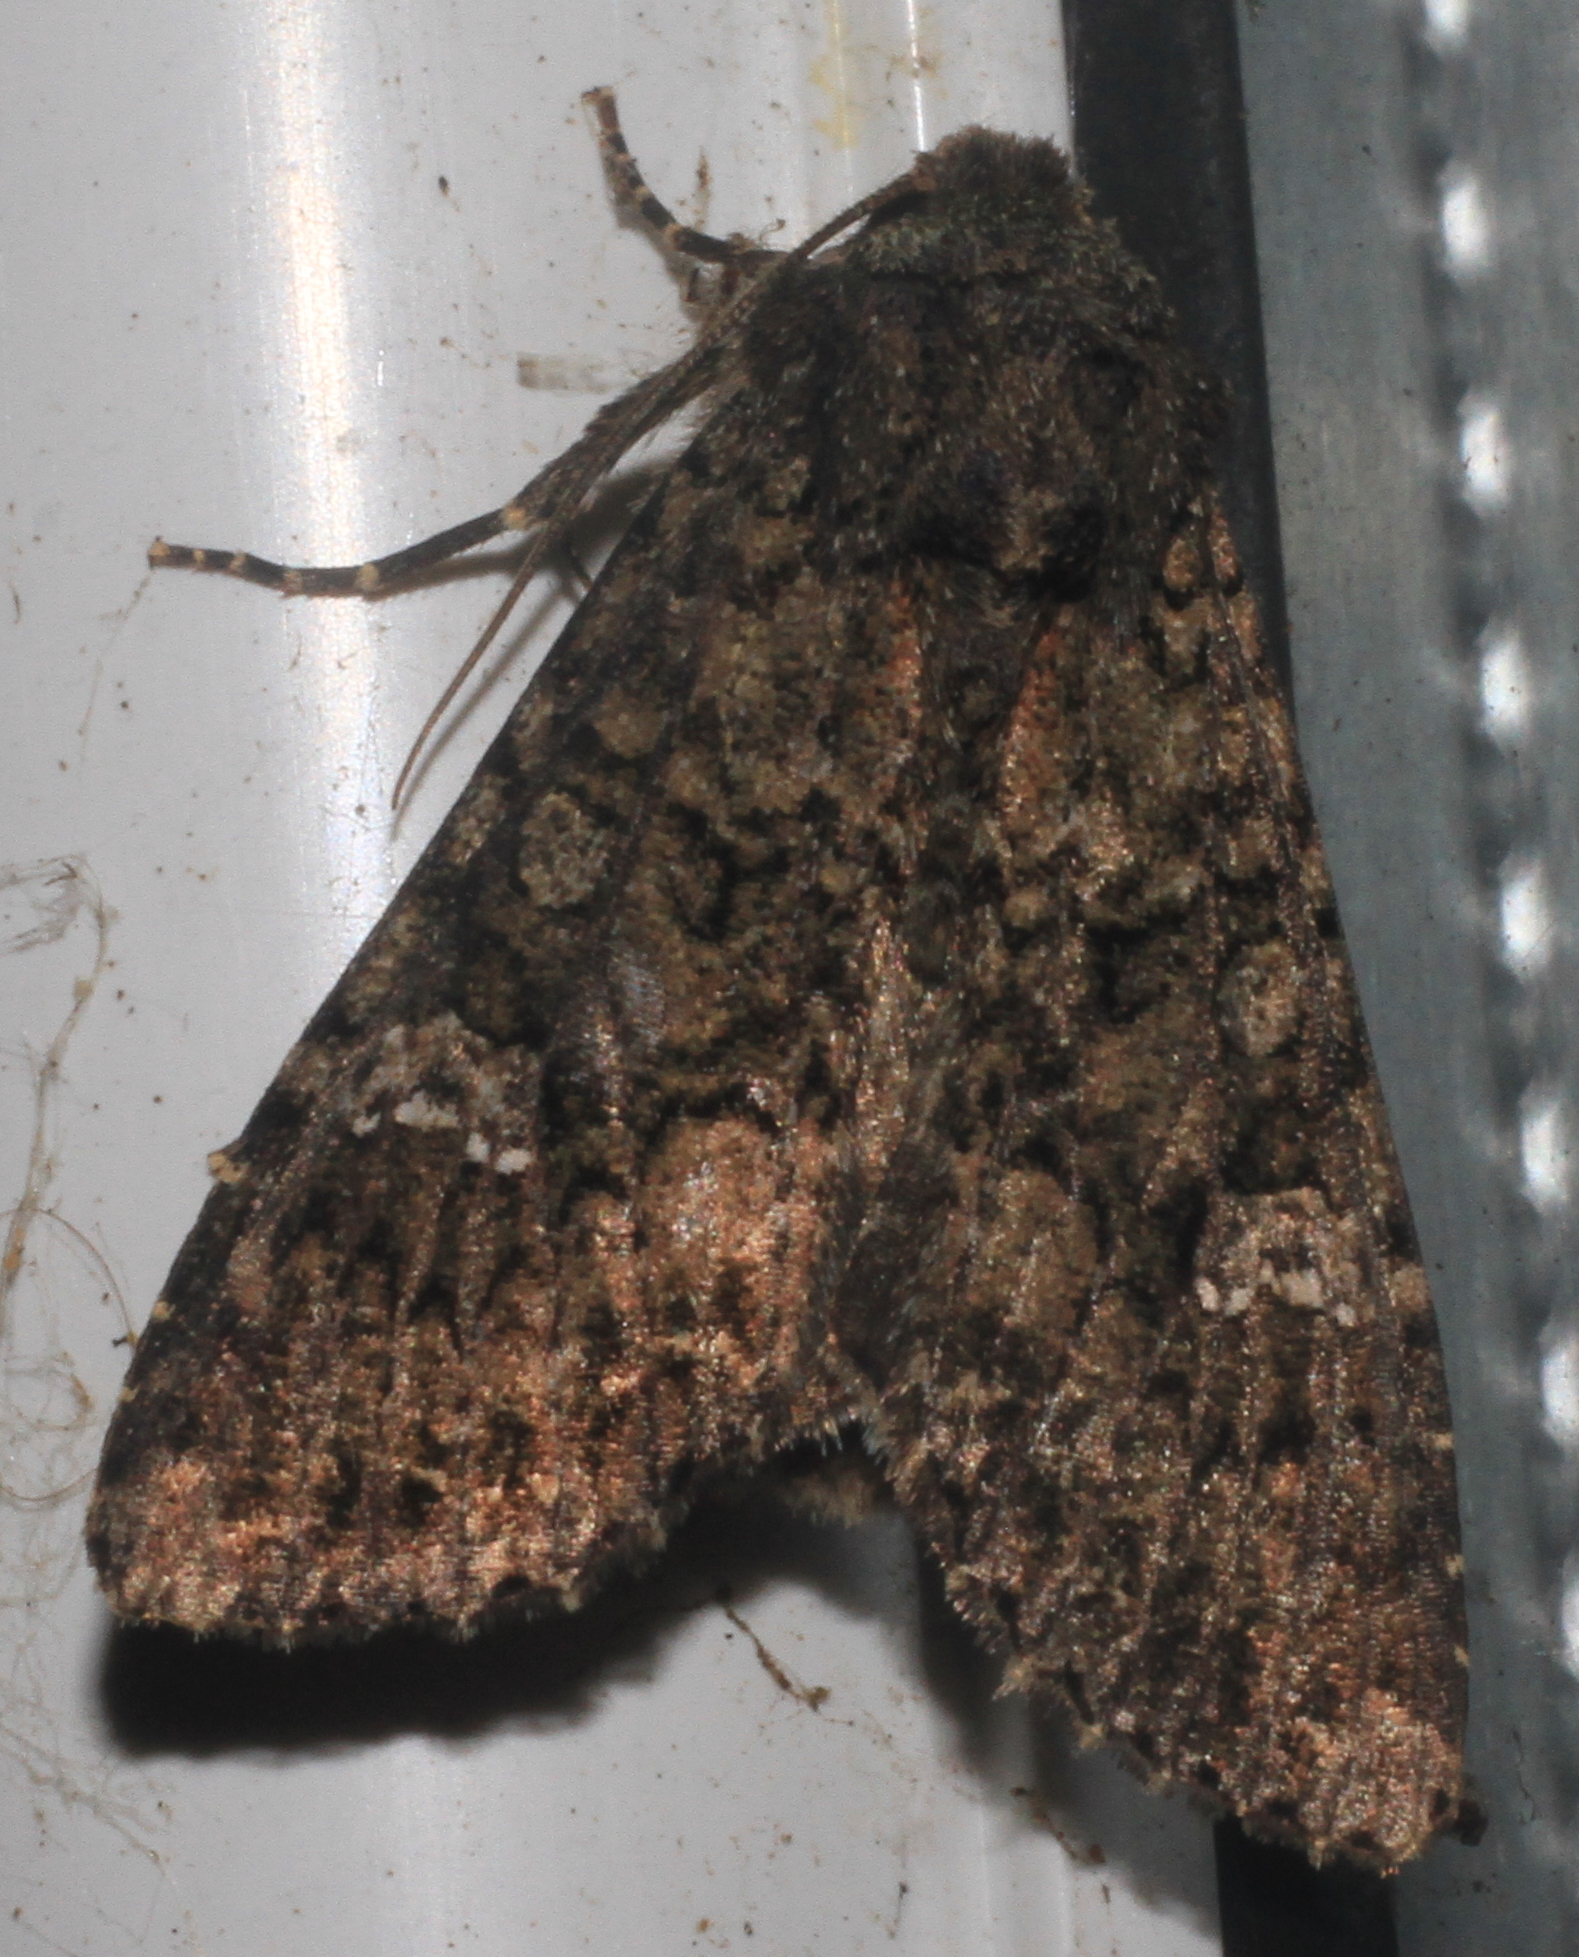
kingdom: Animalia
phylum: Arthropoda
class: Insecta
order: Lepidoptera
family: Noctuidae
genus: Mamestra
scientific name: Mamestra brassicae
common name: Cabbage moth
